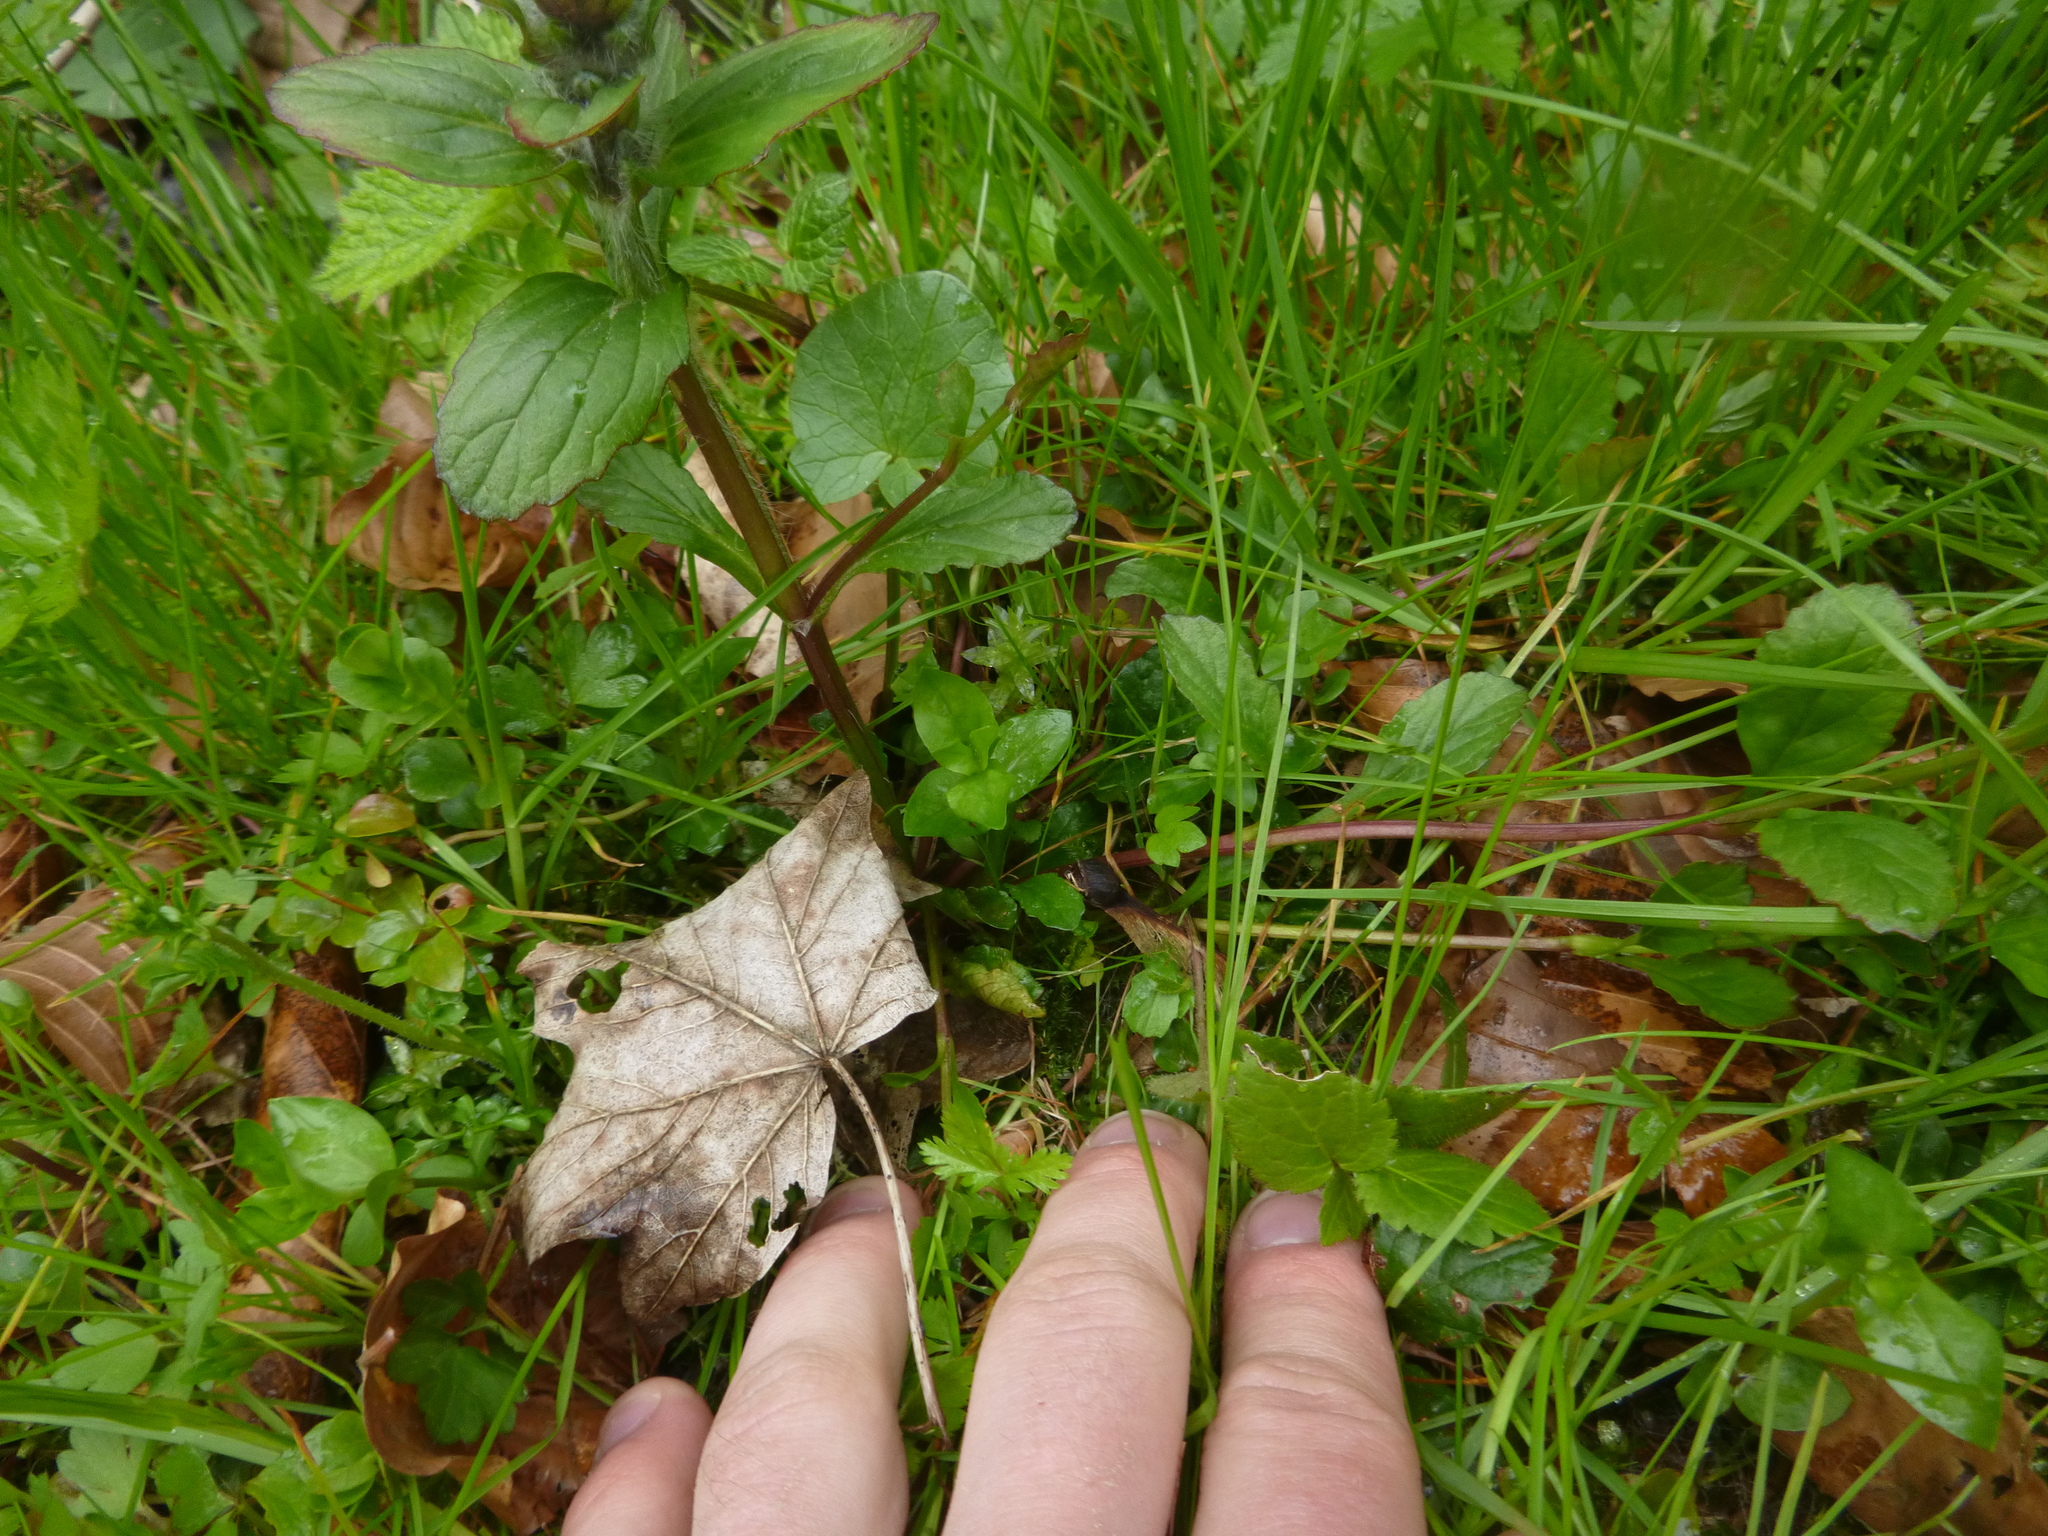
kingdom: Plantae
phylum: Tracheophyta
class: Magnoliopsida
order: Lamiales
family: Lamiaceae
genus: Ajuga
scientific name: Ajuga reptans
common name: Bugle
